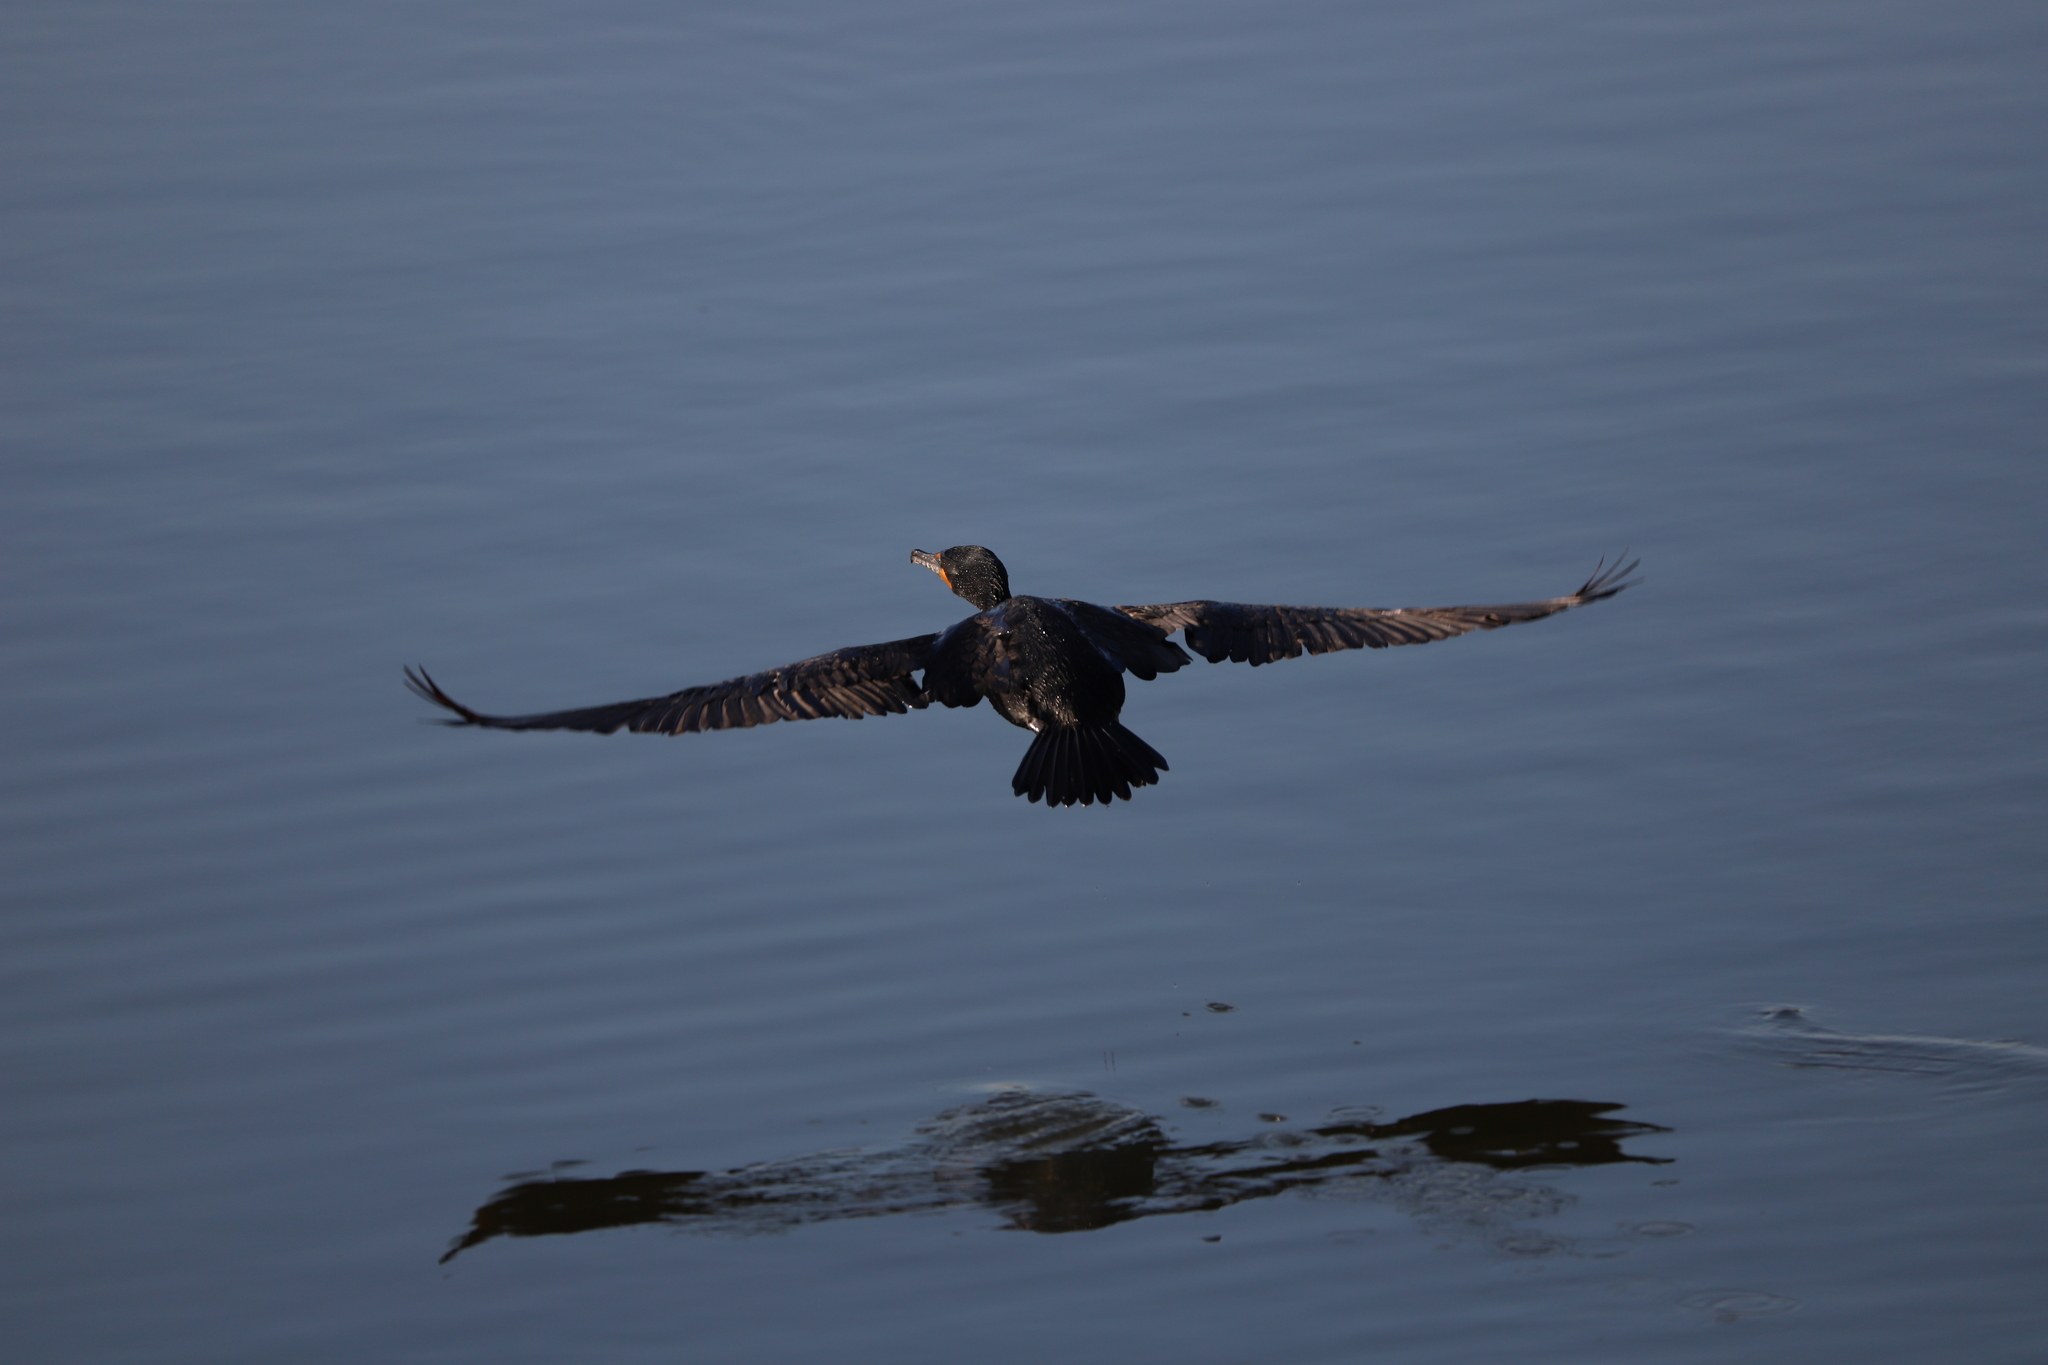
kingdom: Animalia
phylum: Chordata
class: Aves
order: Suliformes
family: Phalacrocoracidae
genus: Phalacrocorax
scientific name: Phalacrocorax auritus
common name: Double-crested cormorant
